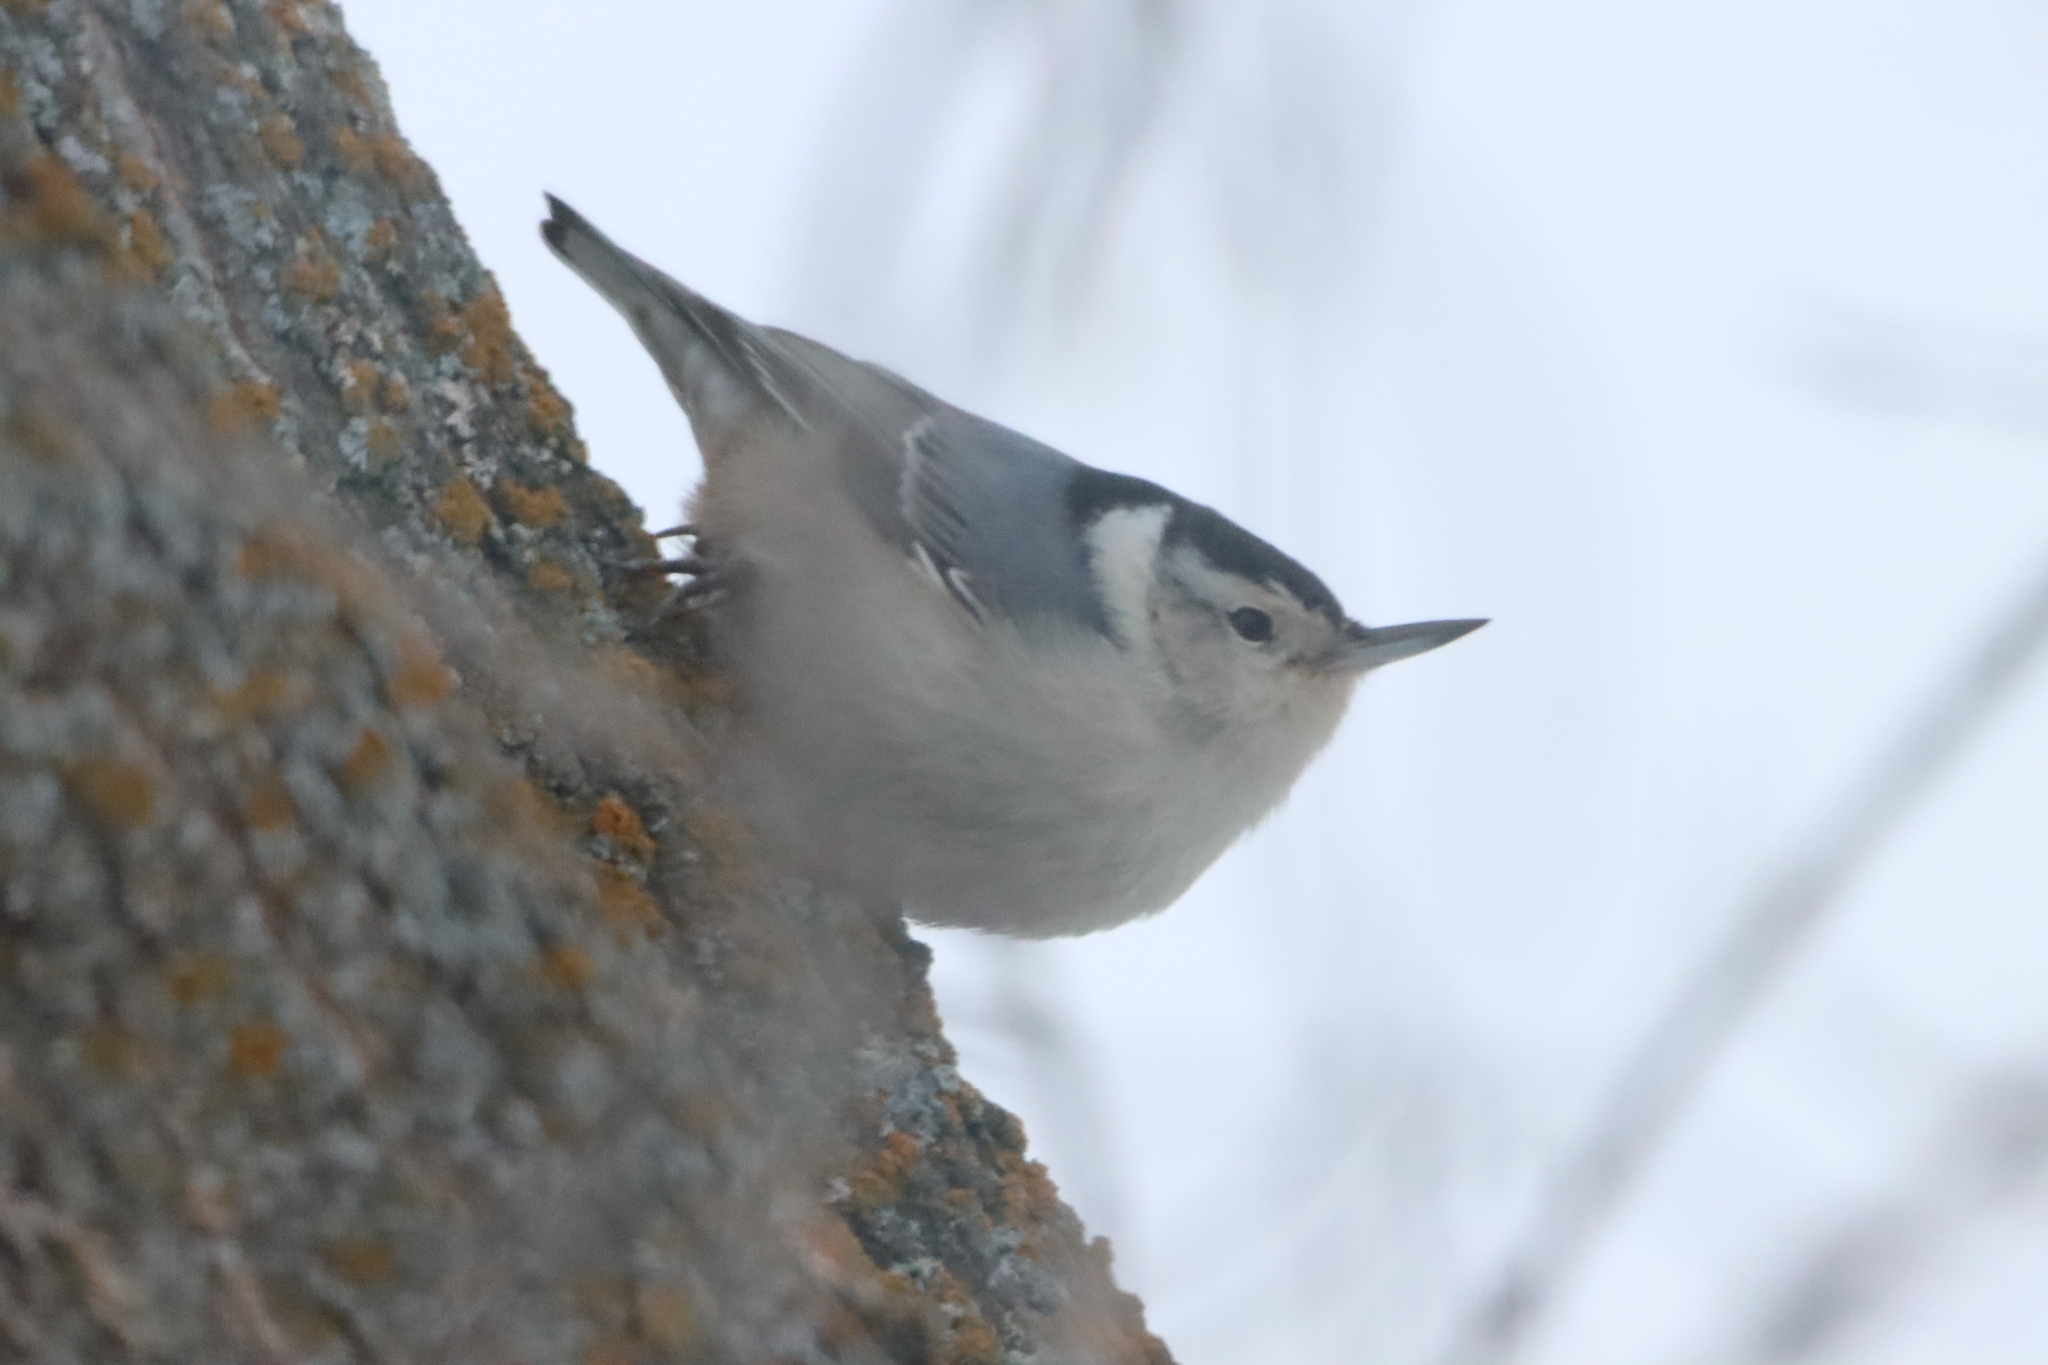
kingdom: Animalia
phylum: Chordata
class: Aves
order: Passeriformes
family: Sittidae
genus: Sitta
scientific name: Sitta carolinensis
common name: White-breasted nuthatch
